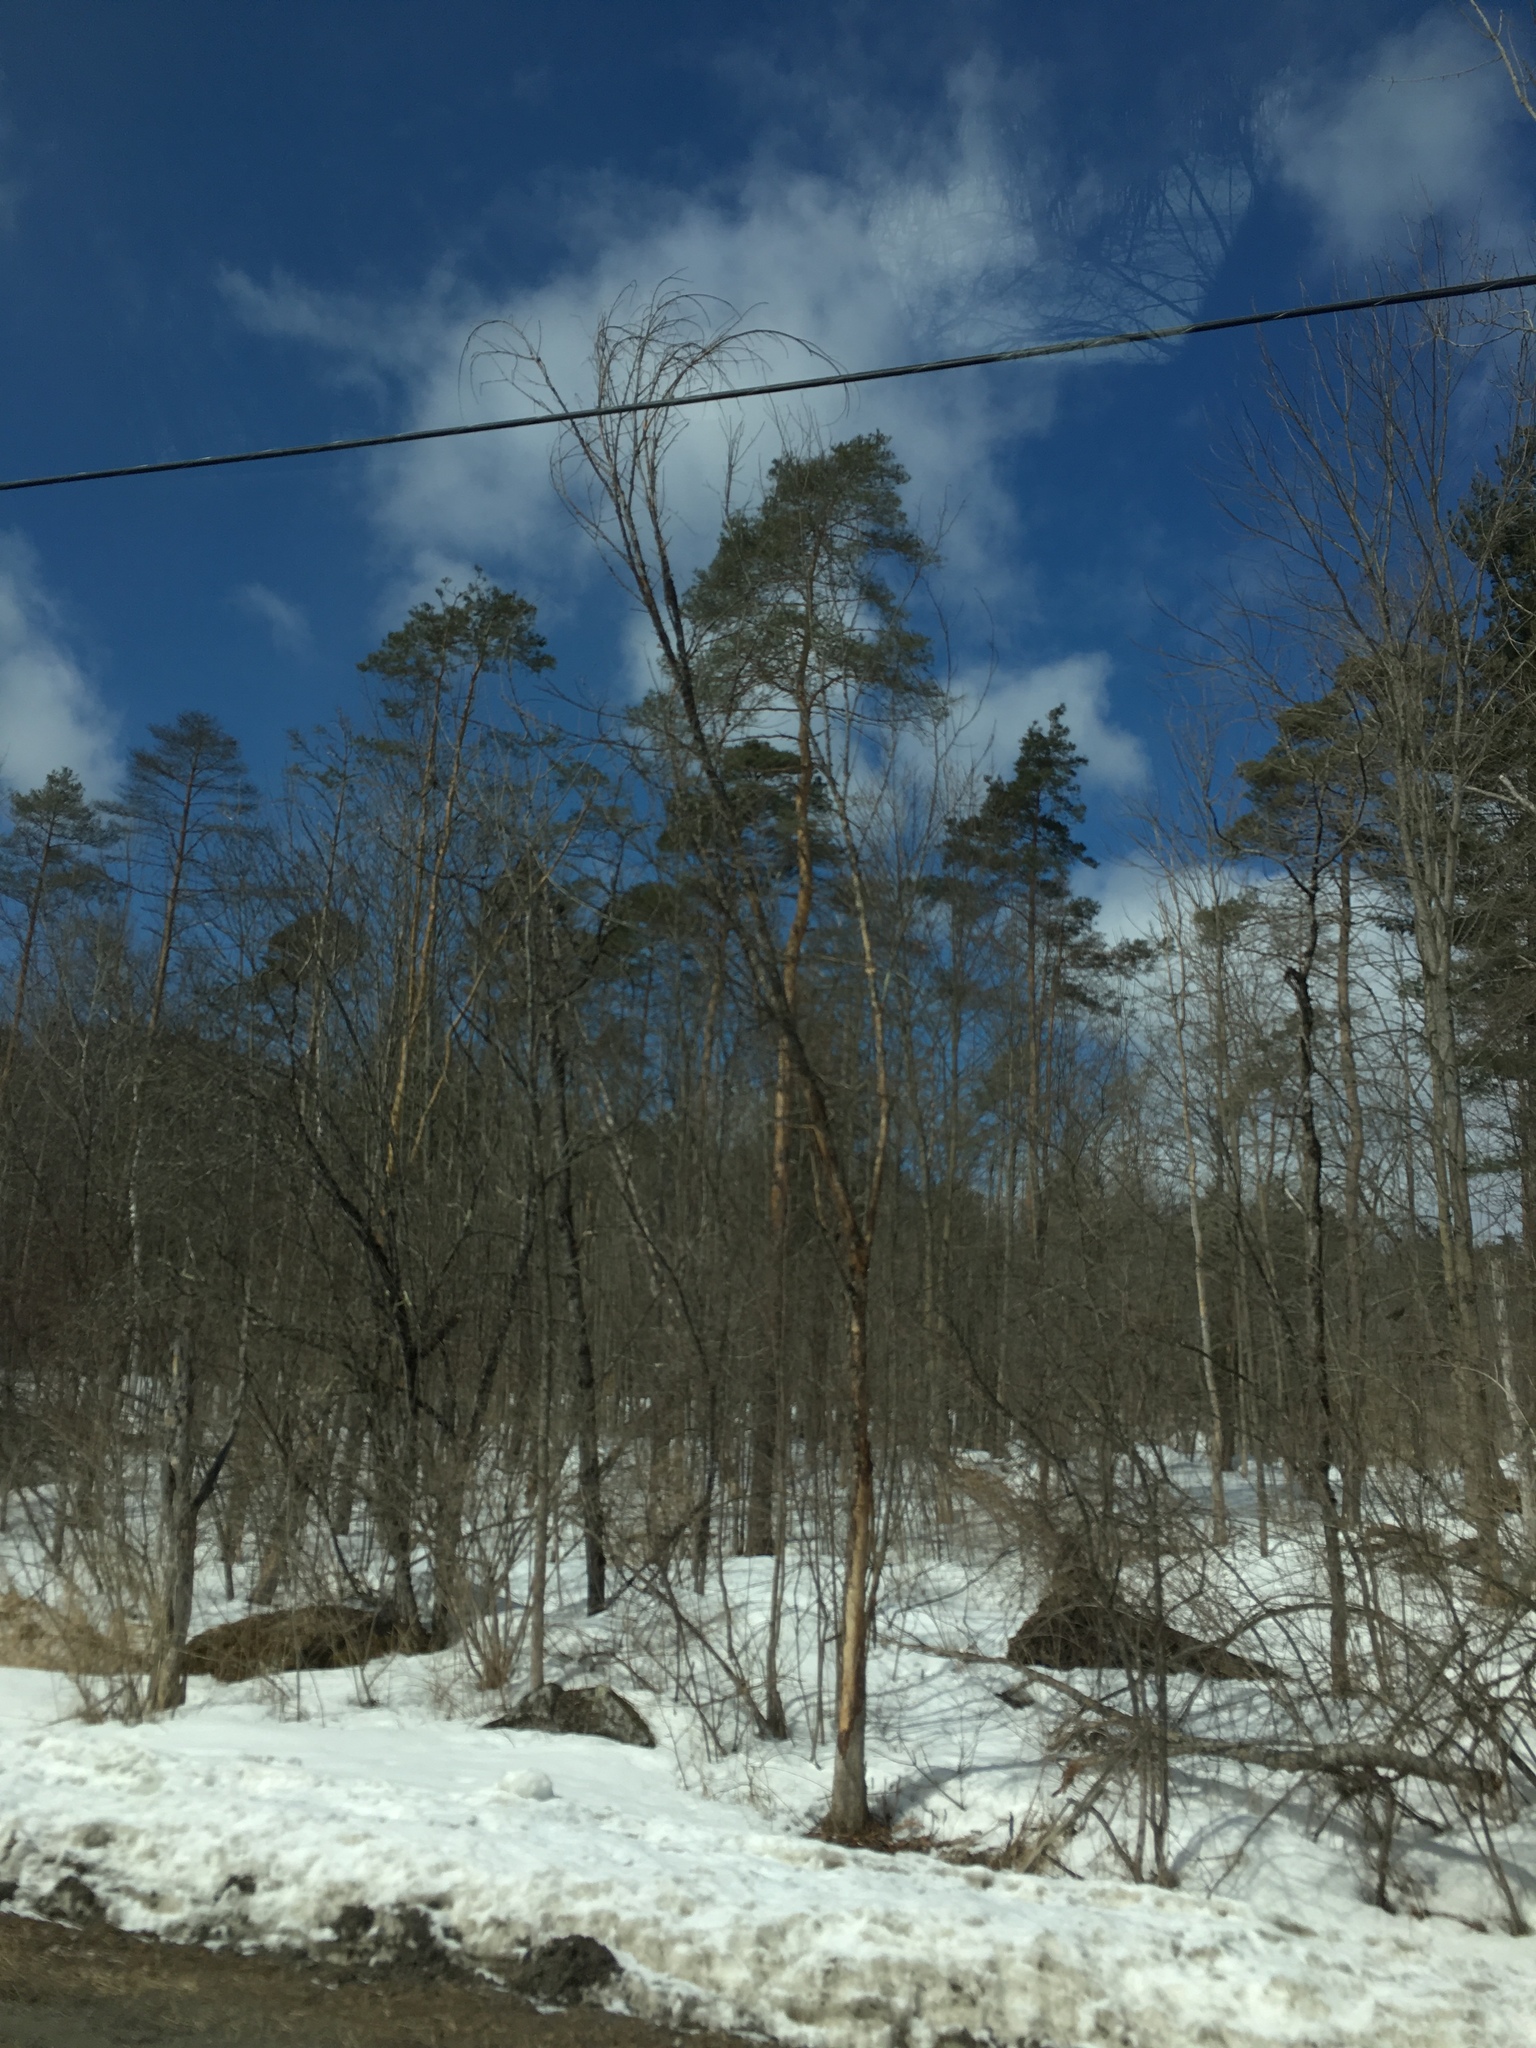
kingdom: Plantae
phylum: Tracheophyta
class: Magnoliopsida
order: Rosales
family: Ulmaceae
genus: Ulmus
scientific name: Ulmus americana
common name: American elm
